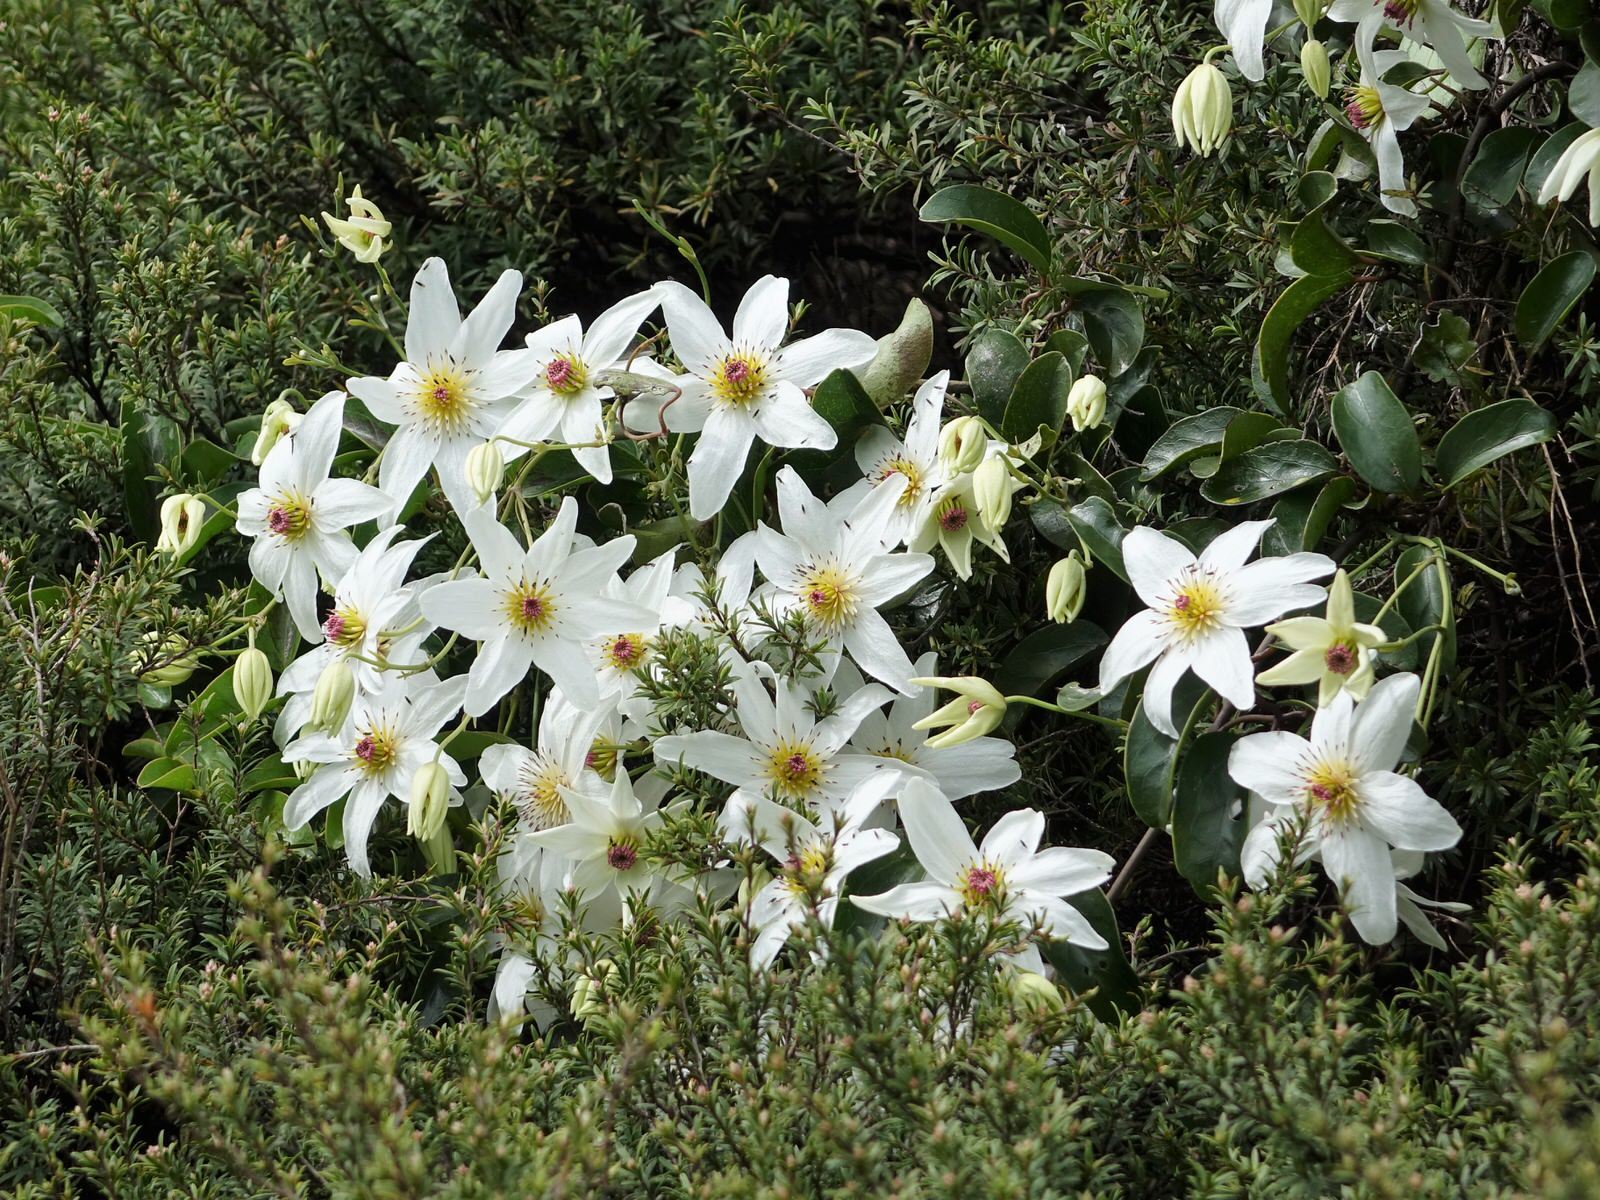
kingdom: Plantae
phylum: Tracheophyta
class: Magnoliopsida
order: Ranunculales
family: Ranunculaceae
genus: Clematis
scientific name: Clematis paniculata
